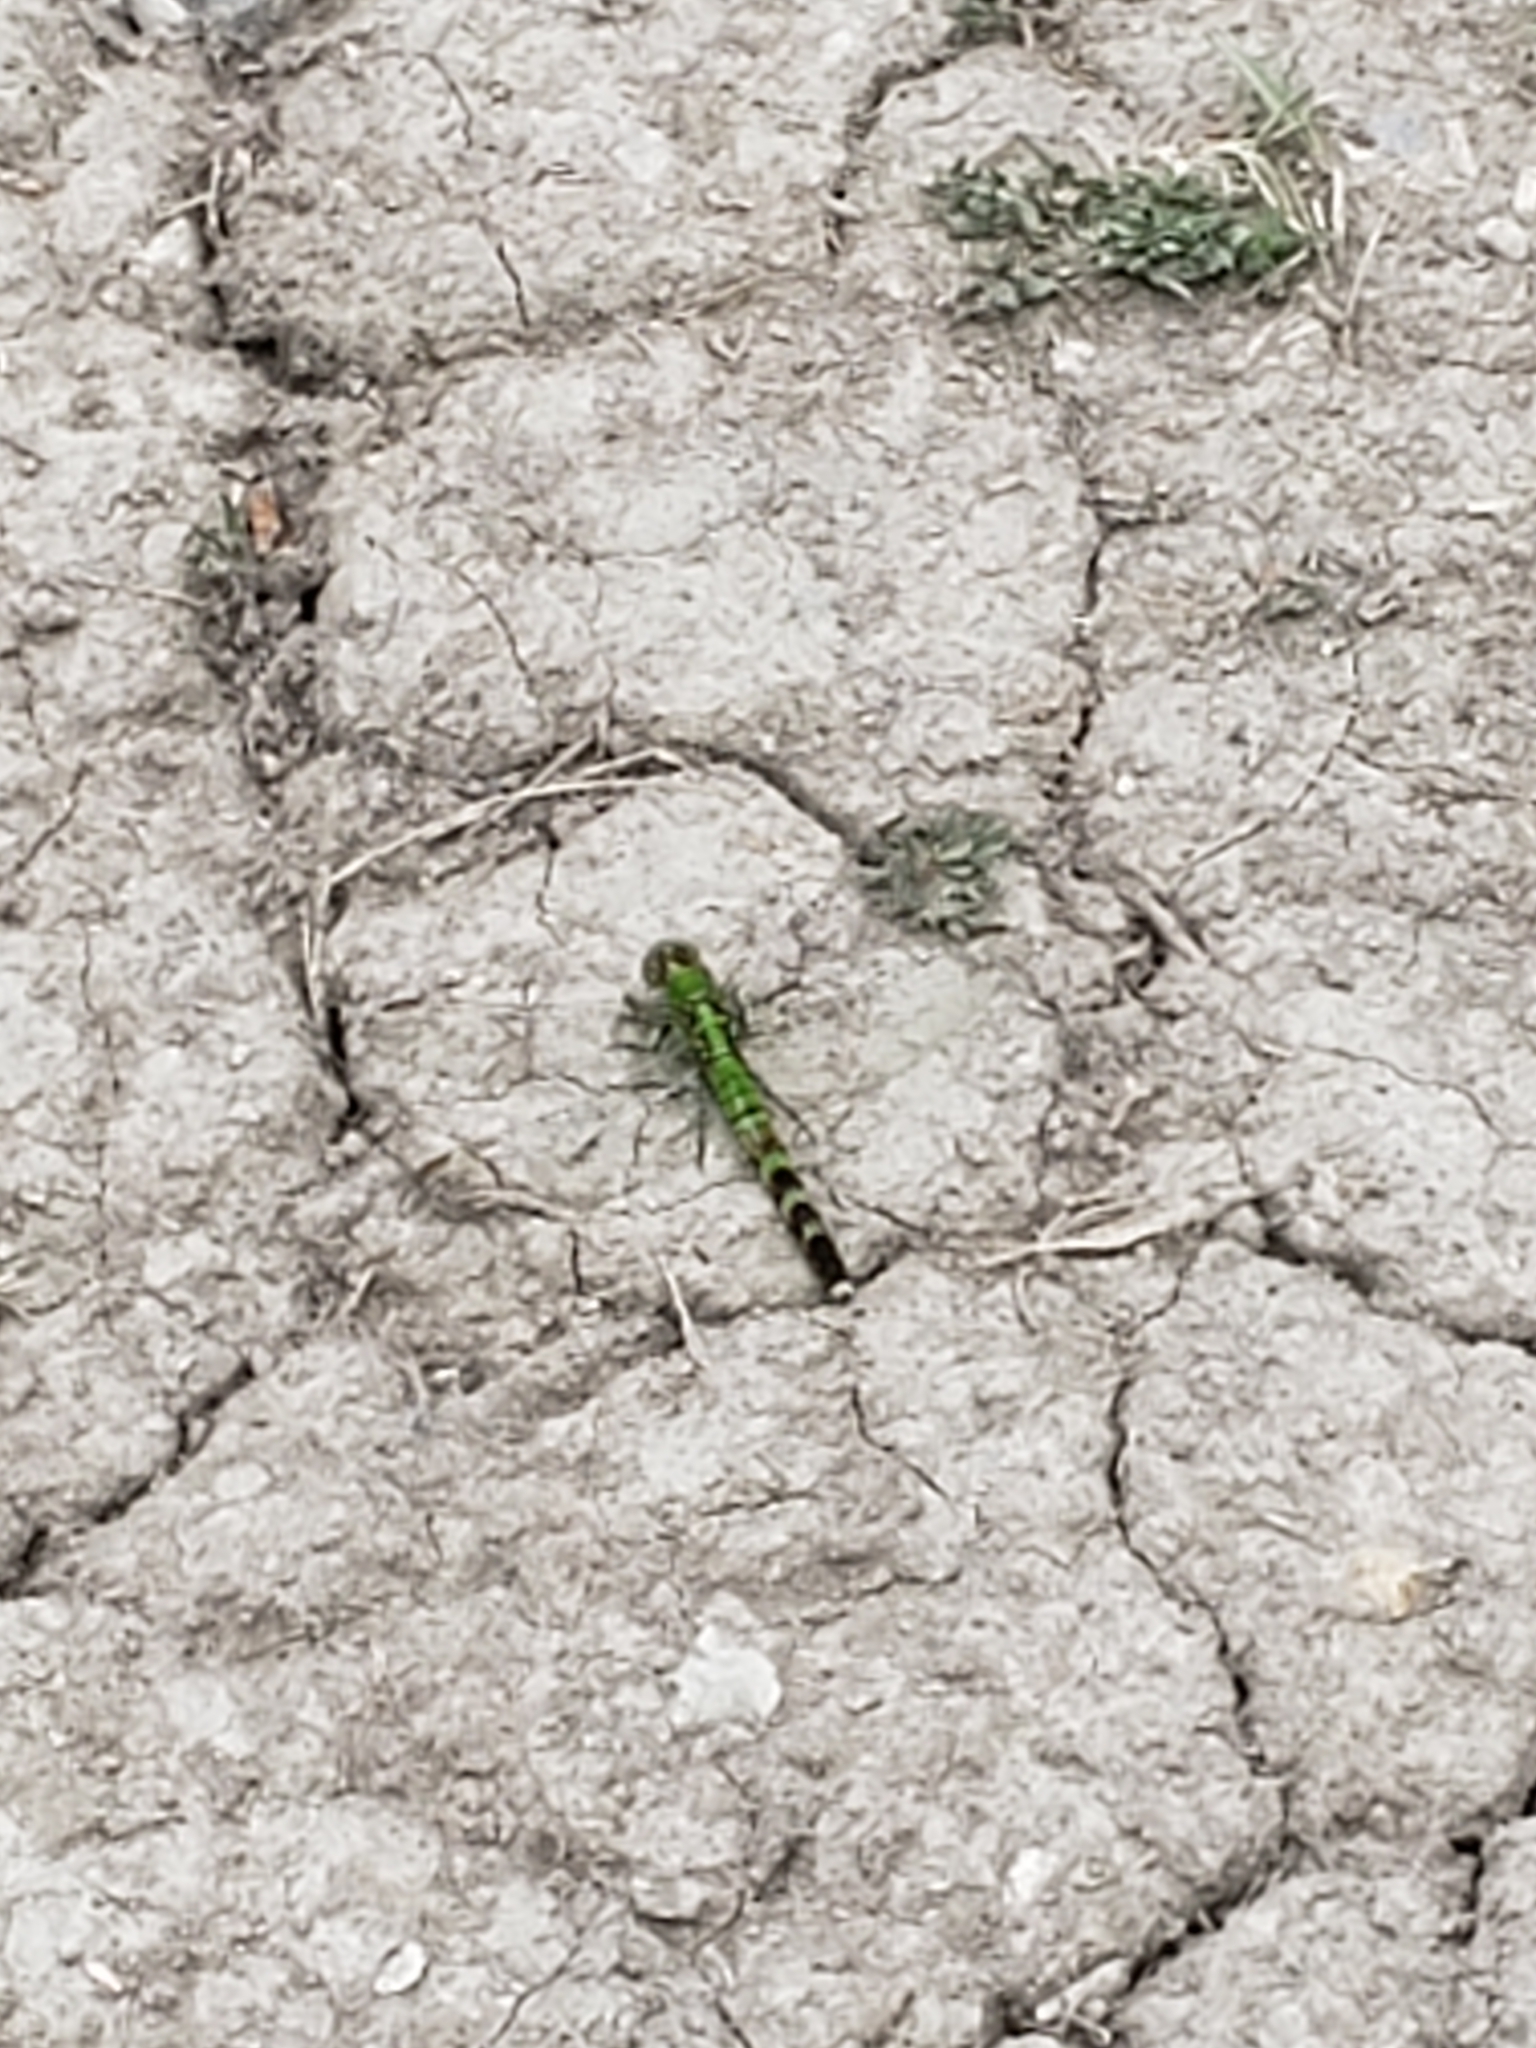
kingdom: Animalia
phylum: Arthropoda
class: Insecta
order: Odonata
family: Libellulidae
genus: Erythemis
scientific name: Erythemis simplicicollis
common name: Eastern pondhawk
